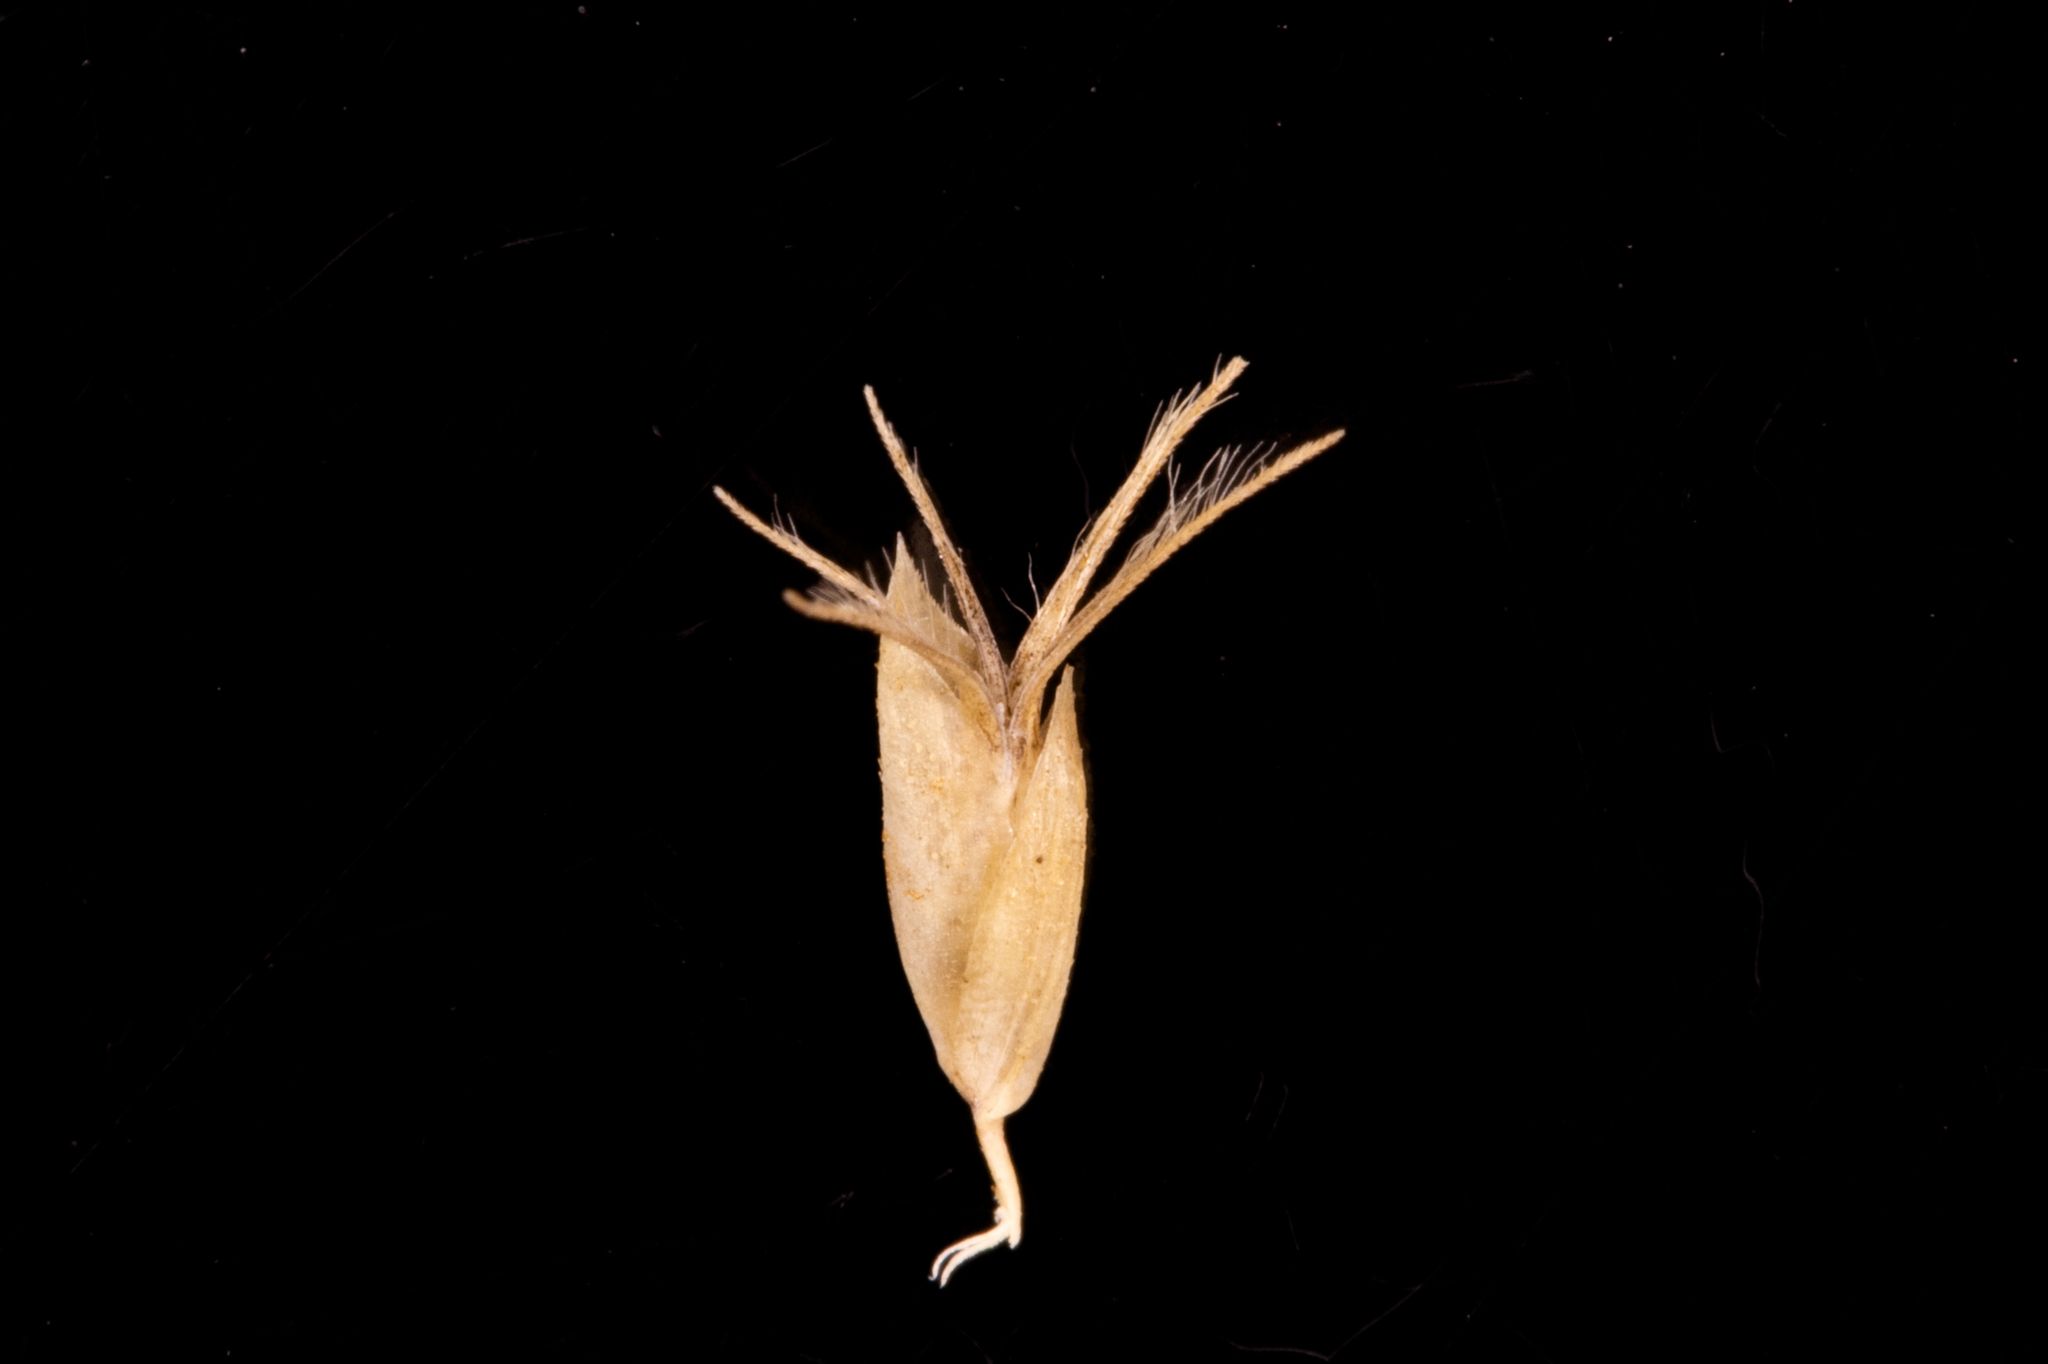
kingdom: Plantae
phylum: Tracheophyta
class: Liliopsida
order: Poales
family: Poaceae
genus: Amphipogon
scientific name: Amphipogon caricinus
